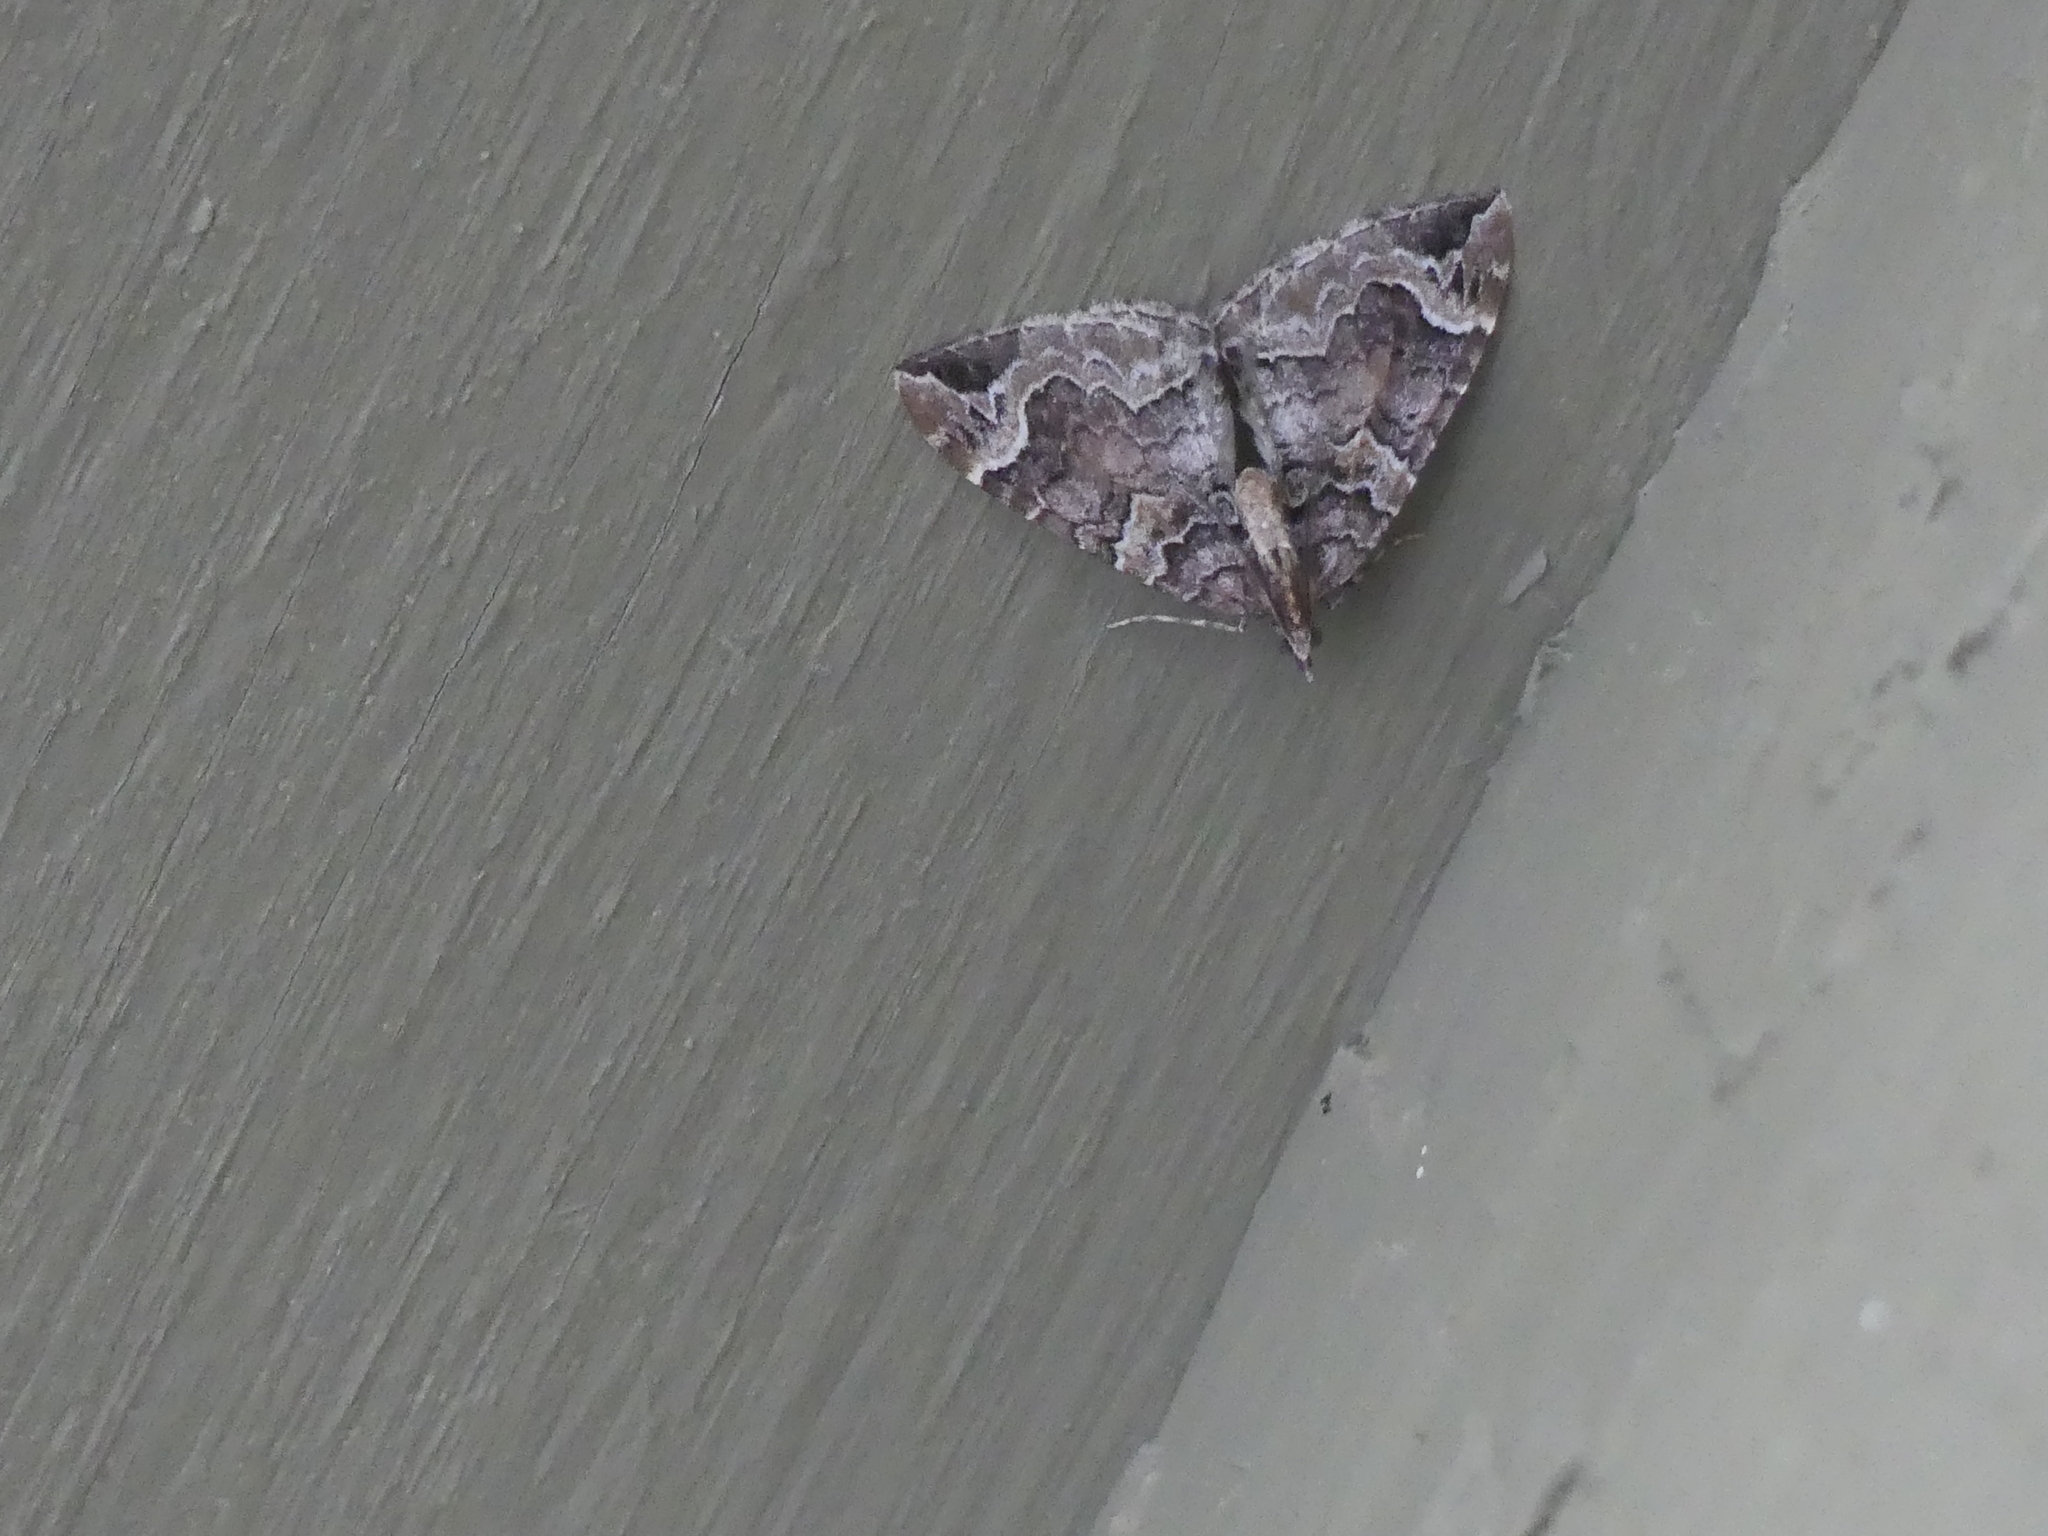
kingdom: Animalia
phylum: Arthropoda
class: Insecta
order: Lepidoptera
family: Geometridae
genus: Eulithis
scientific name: Eulithis xylina
